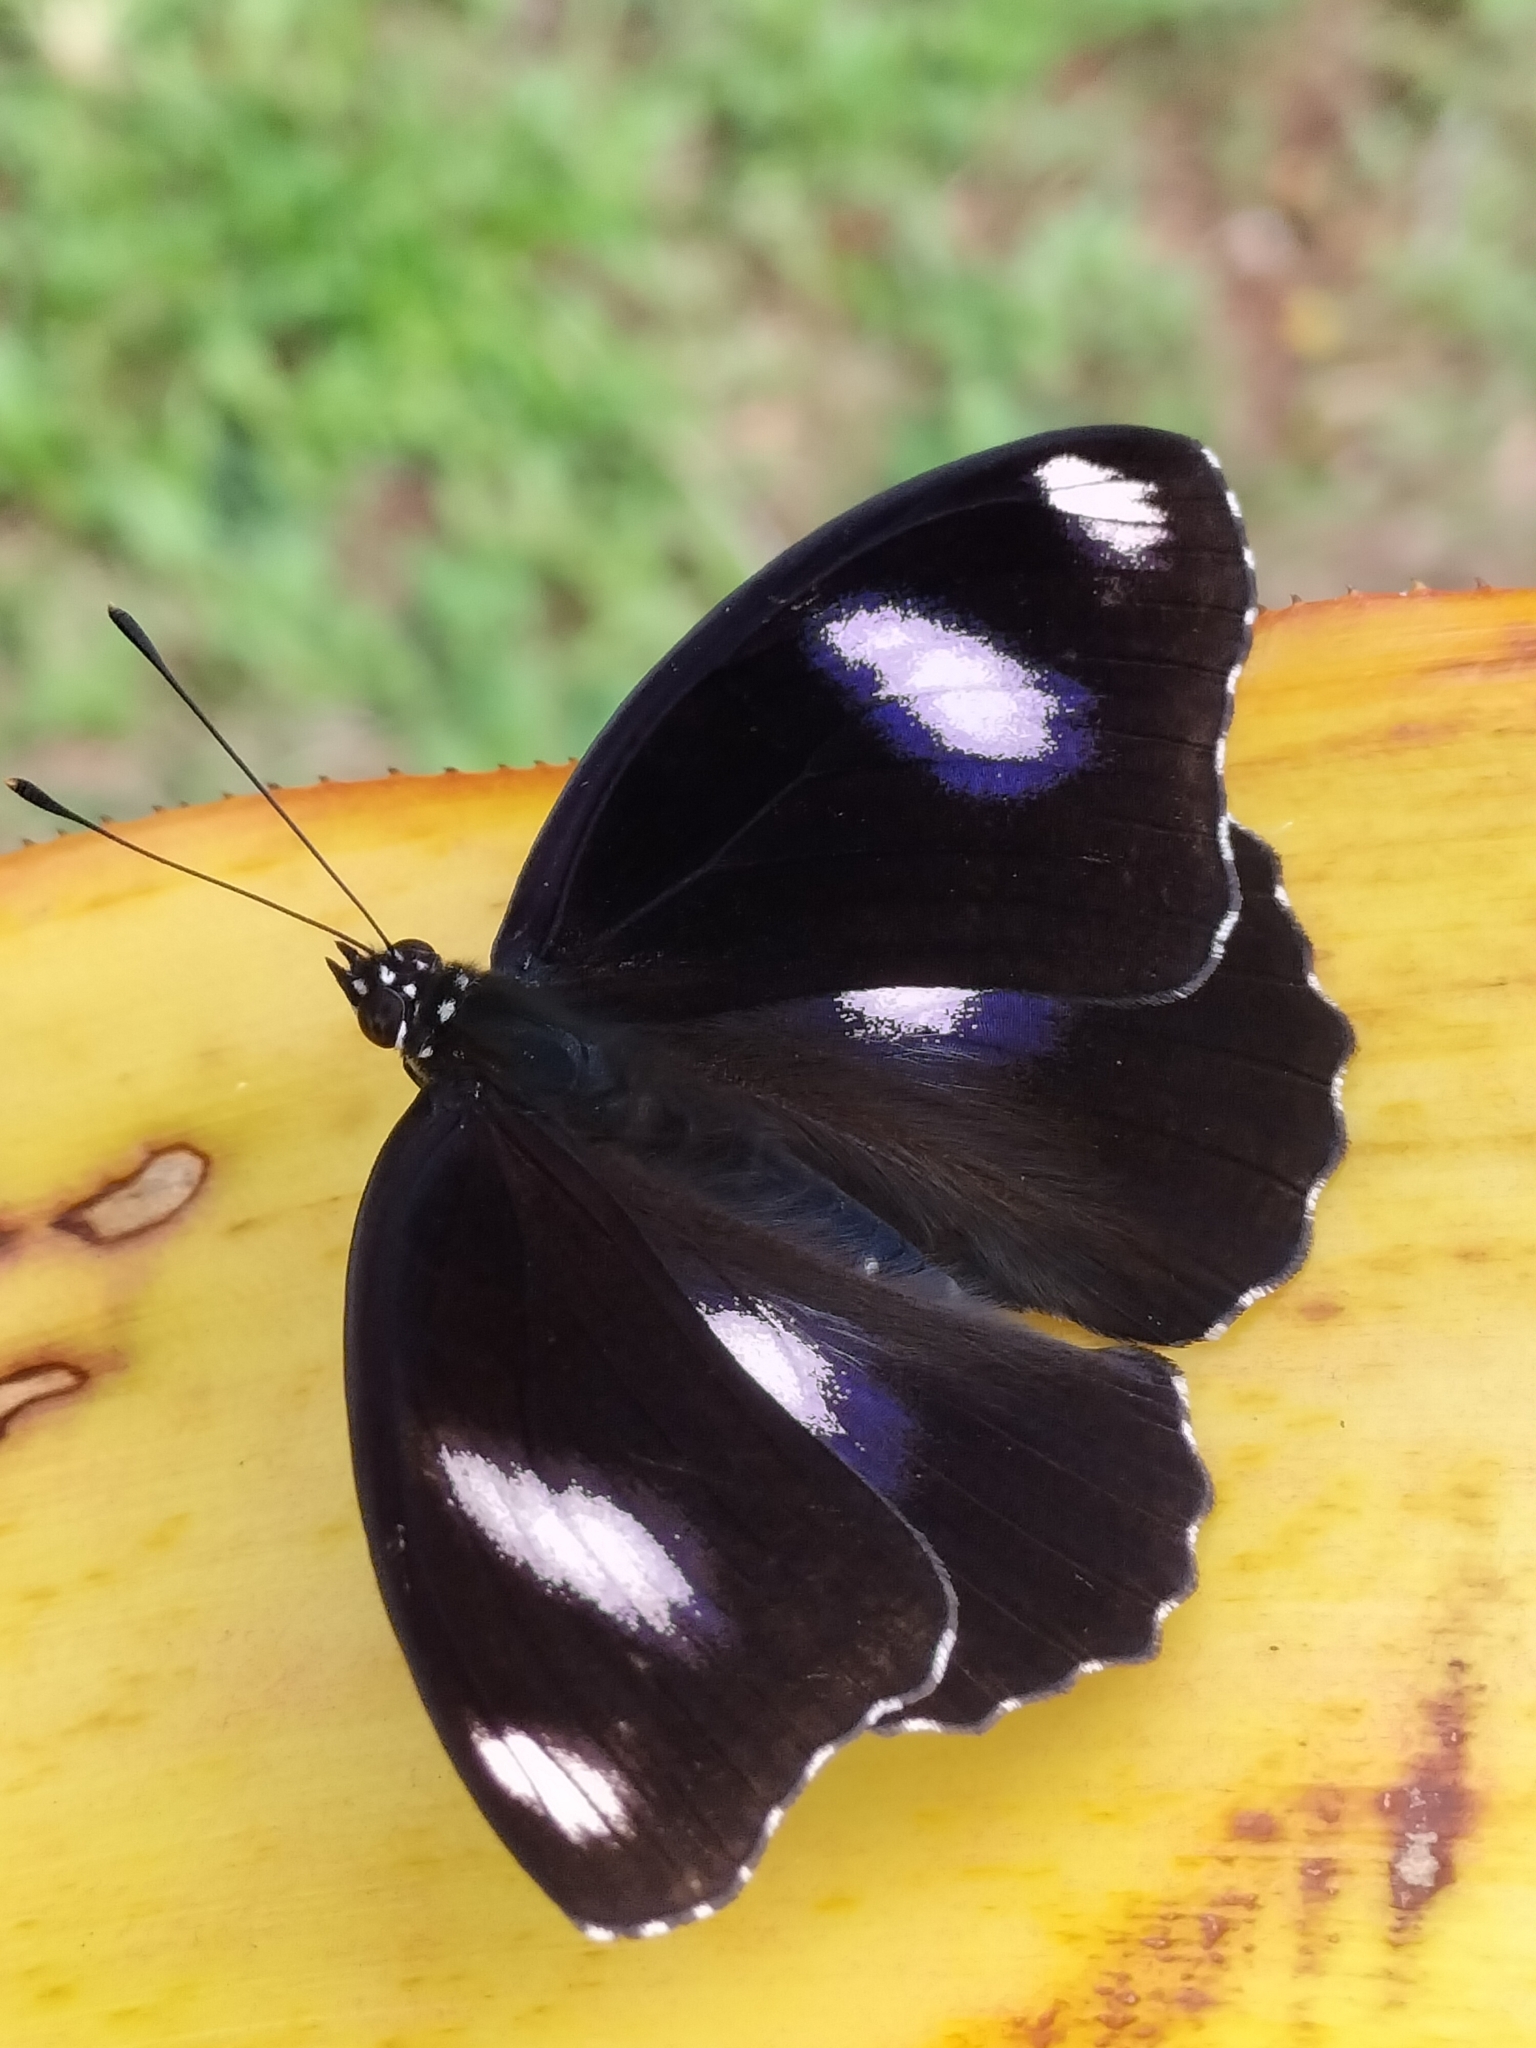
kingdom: Animalia
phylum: Arthropoda
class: Insecta
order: Lepidoptera
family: Nymphalidae
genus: Hypolimnas
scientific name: Hypolimnas bolina
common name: Great eggfly
